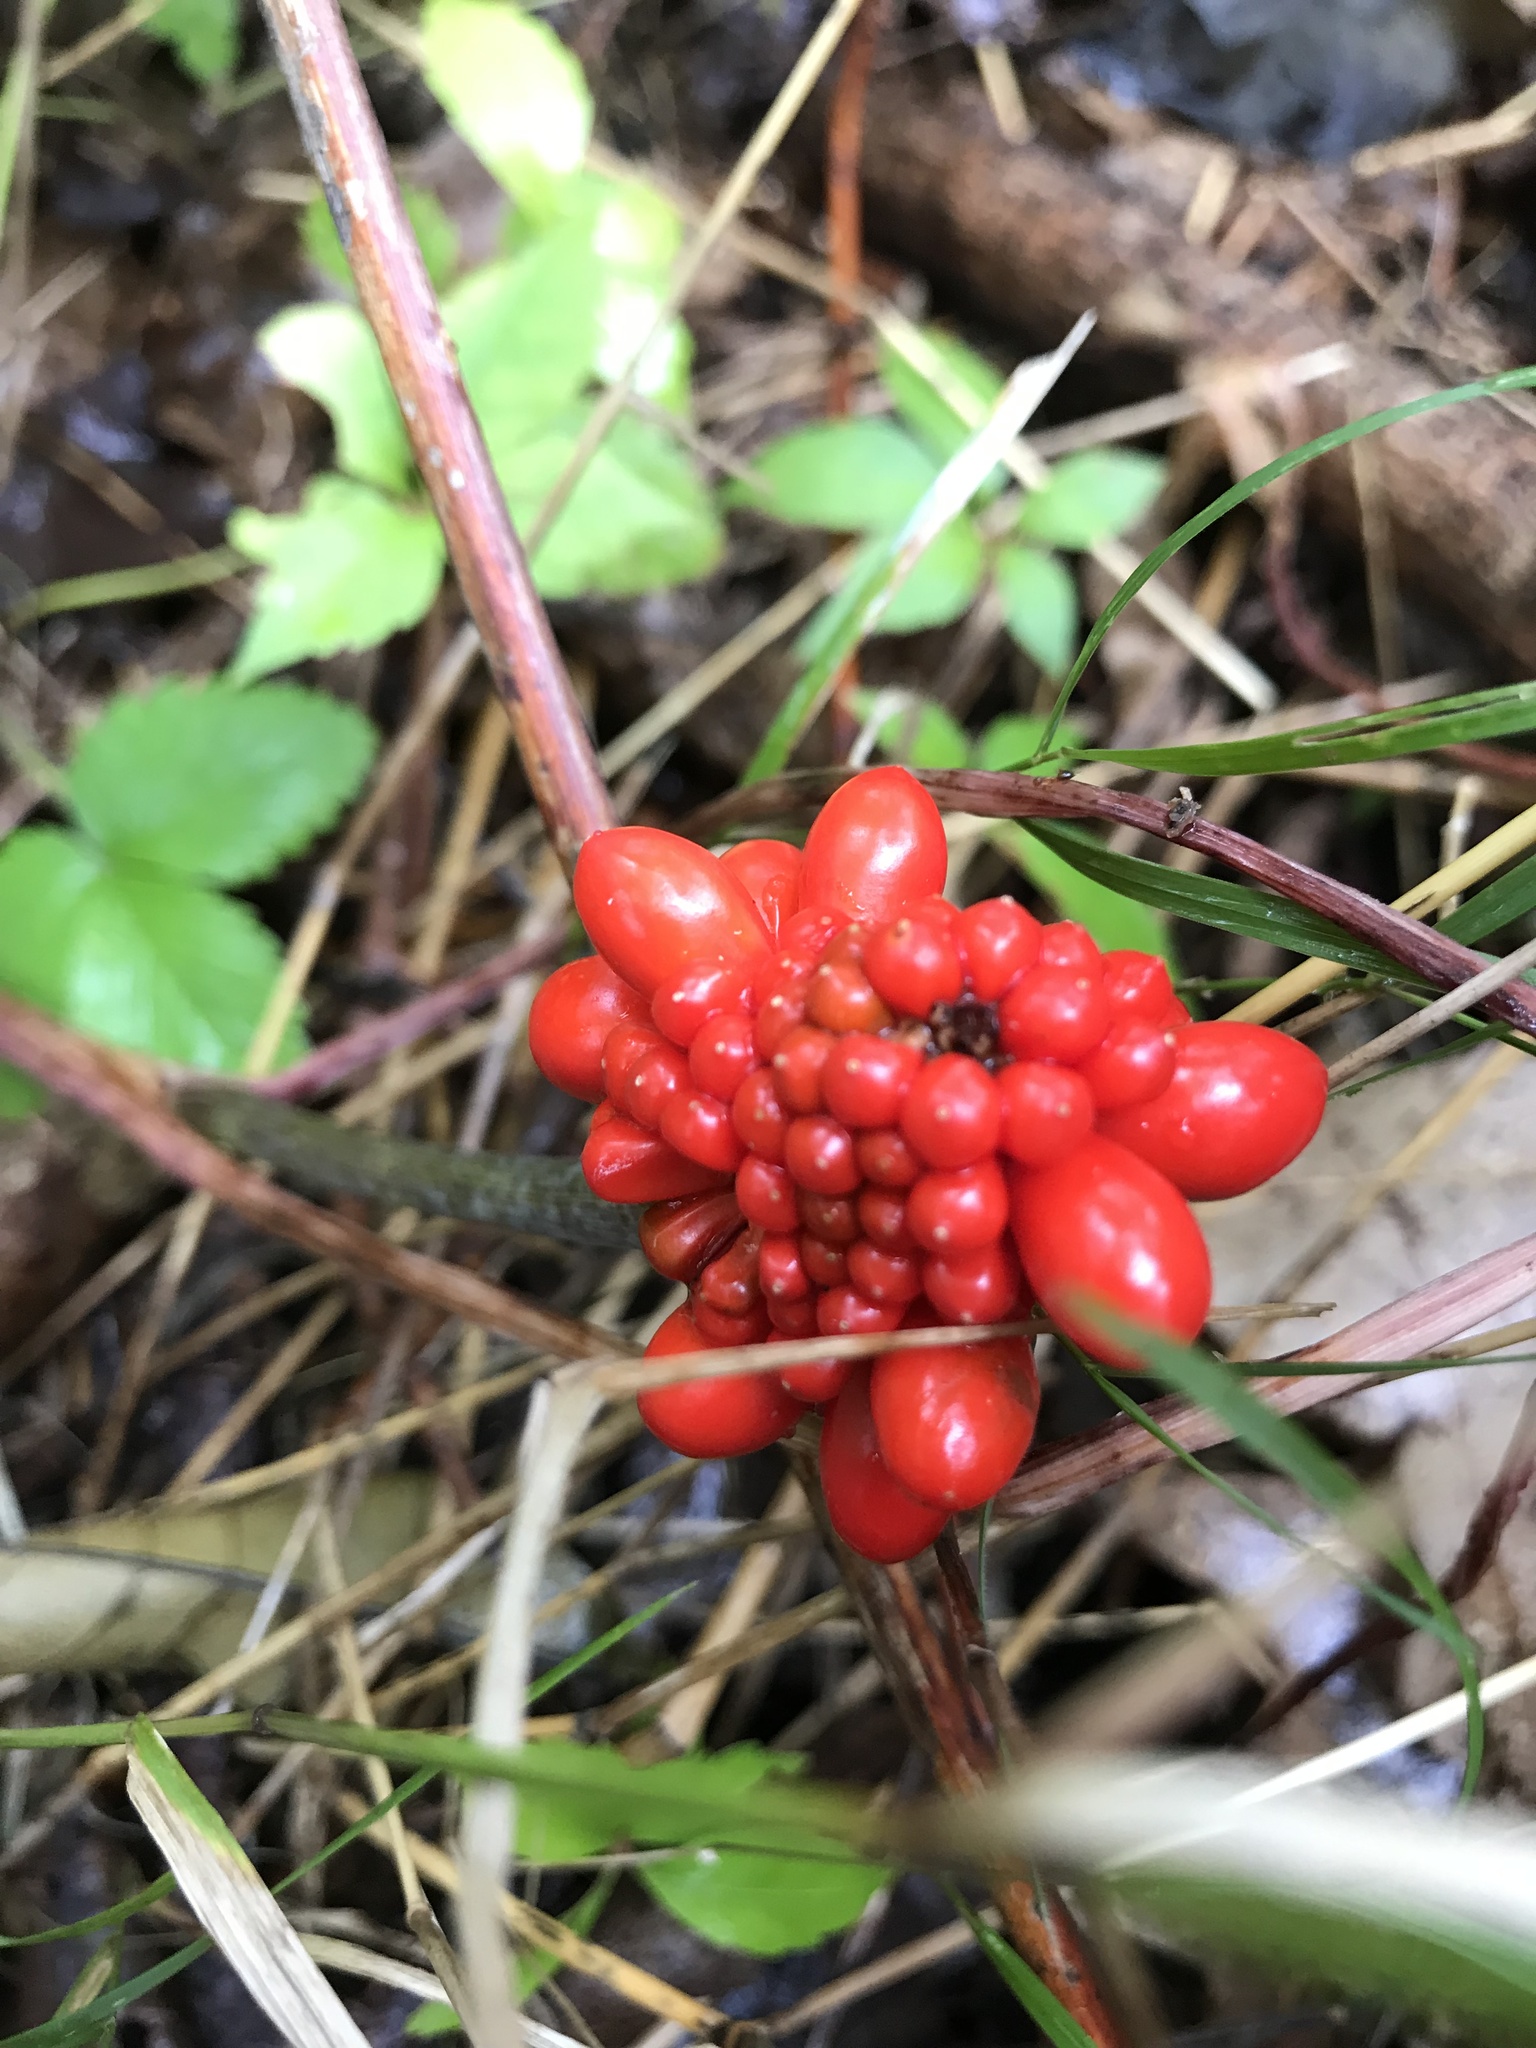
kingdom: Plantae
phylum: Tracheophyta
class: Liliopsida
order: Alismatales
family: Araceae
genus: Arisaema
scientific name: Arisaema triphyllum
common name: Jack-in-the-pulpit
